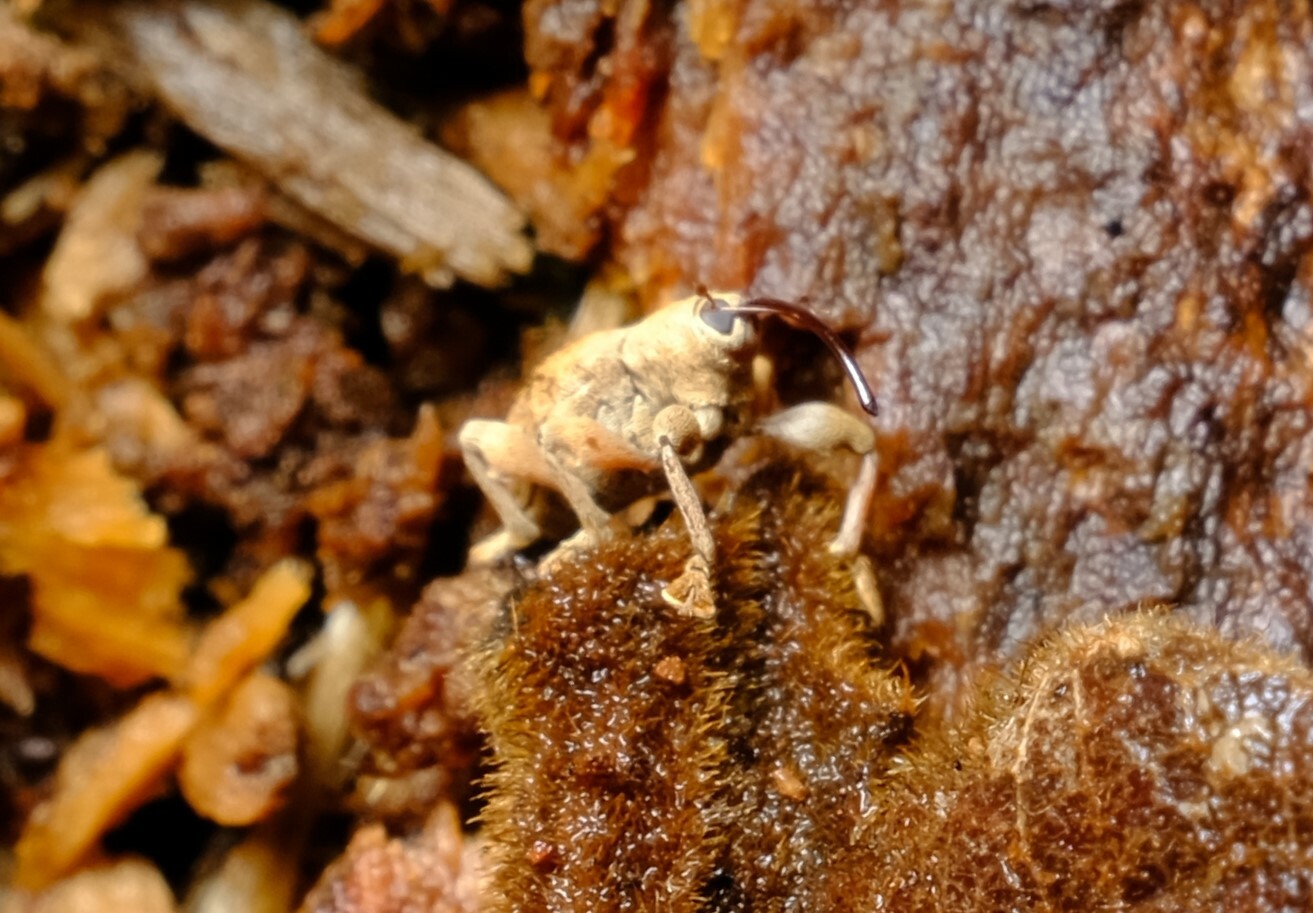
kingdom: Animalia
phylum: Arthropoda
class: Insecta
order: Coleoptera
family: Curculionidae
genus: Curculio
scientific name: Curculio submaculatus
